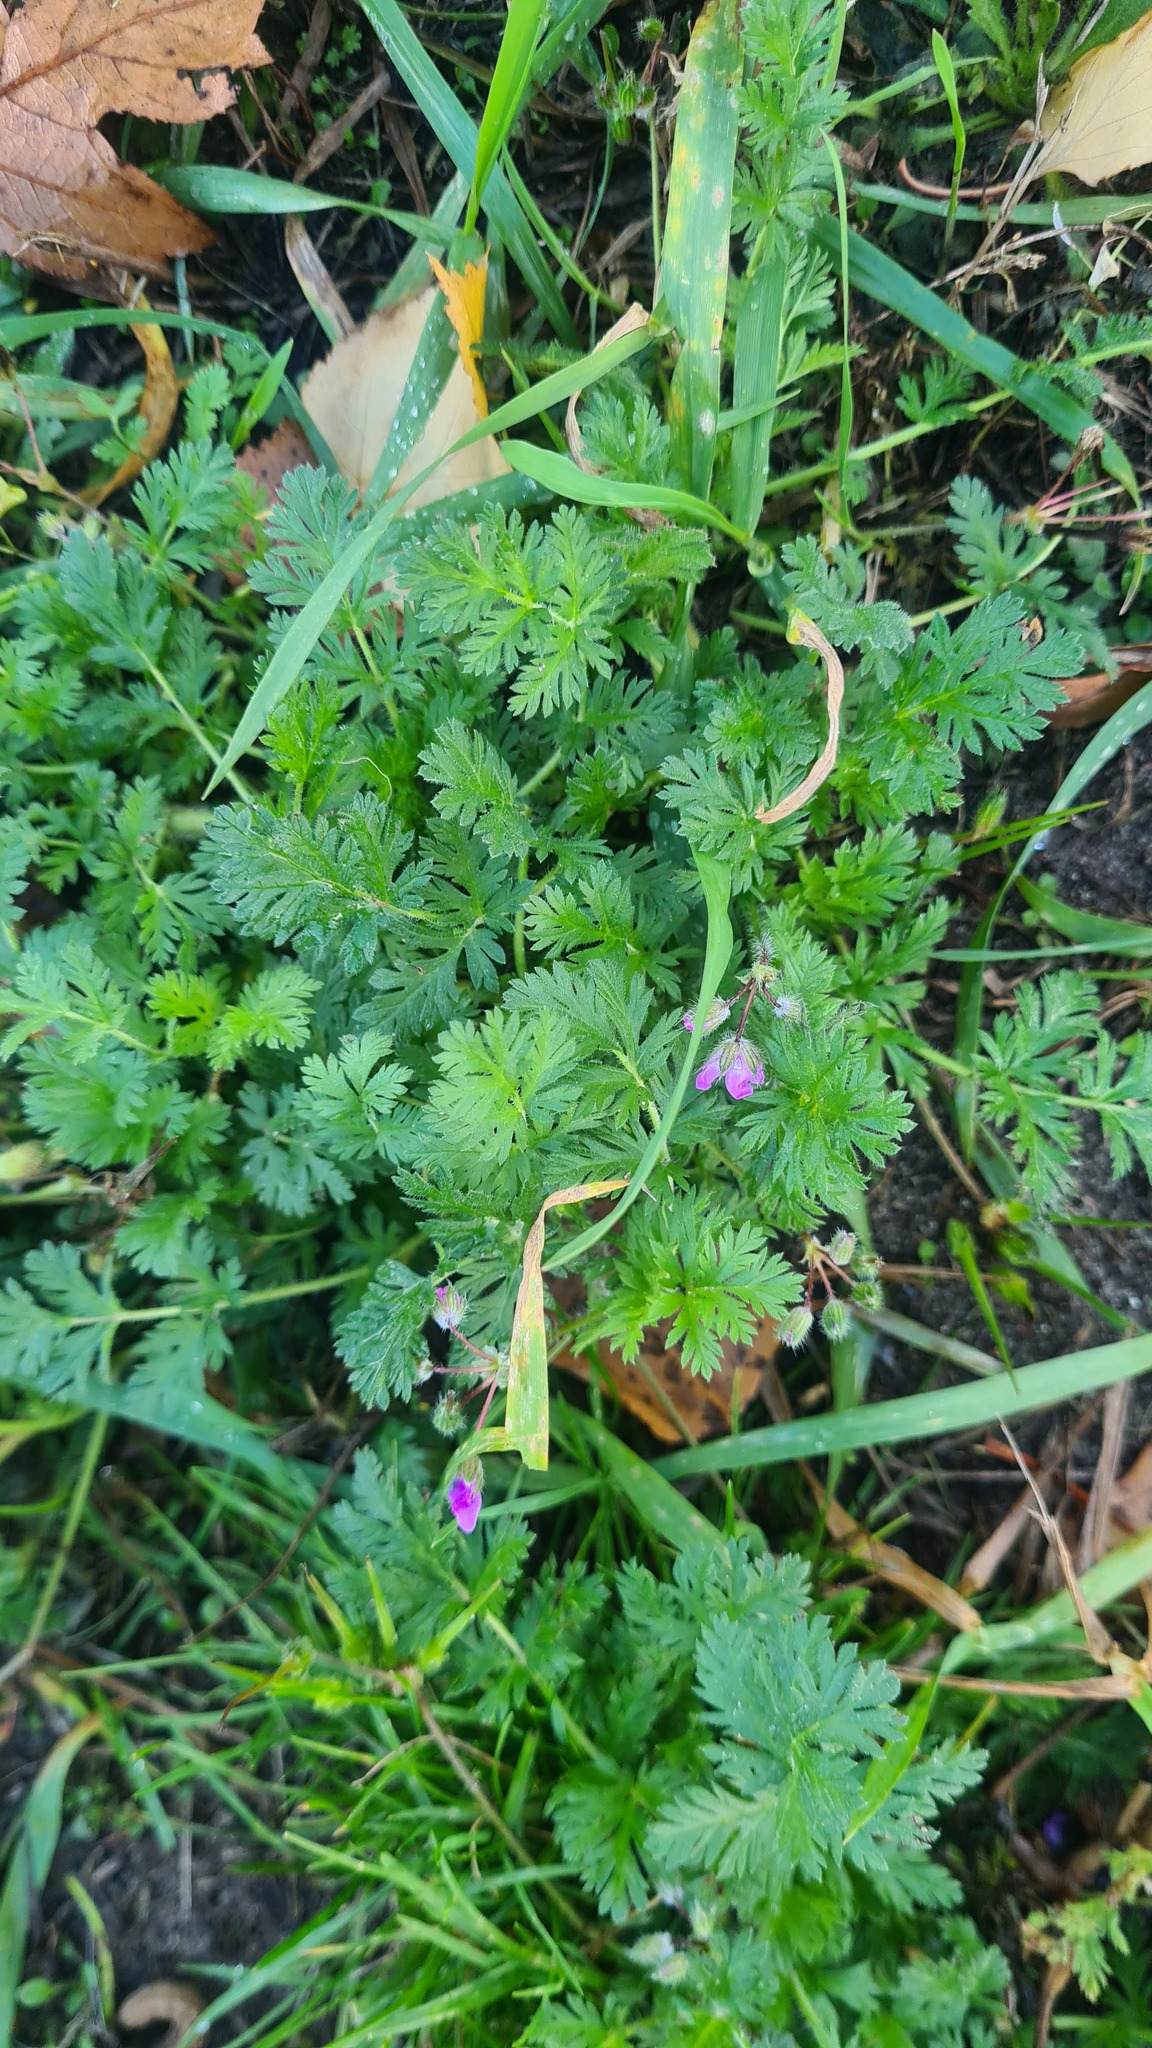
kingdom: Plantae
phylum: Tracheophyta
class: Magnoliopsida
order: Geraniales
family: Geraniaceae
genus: Erodium
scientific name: Erodium cicutarium
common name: Common stork's-bill
